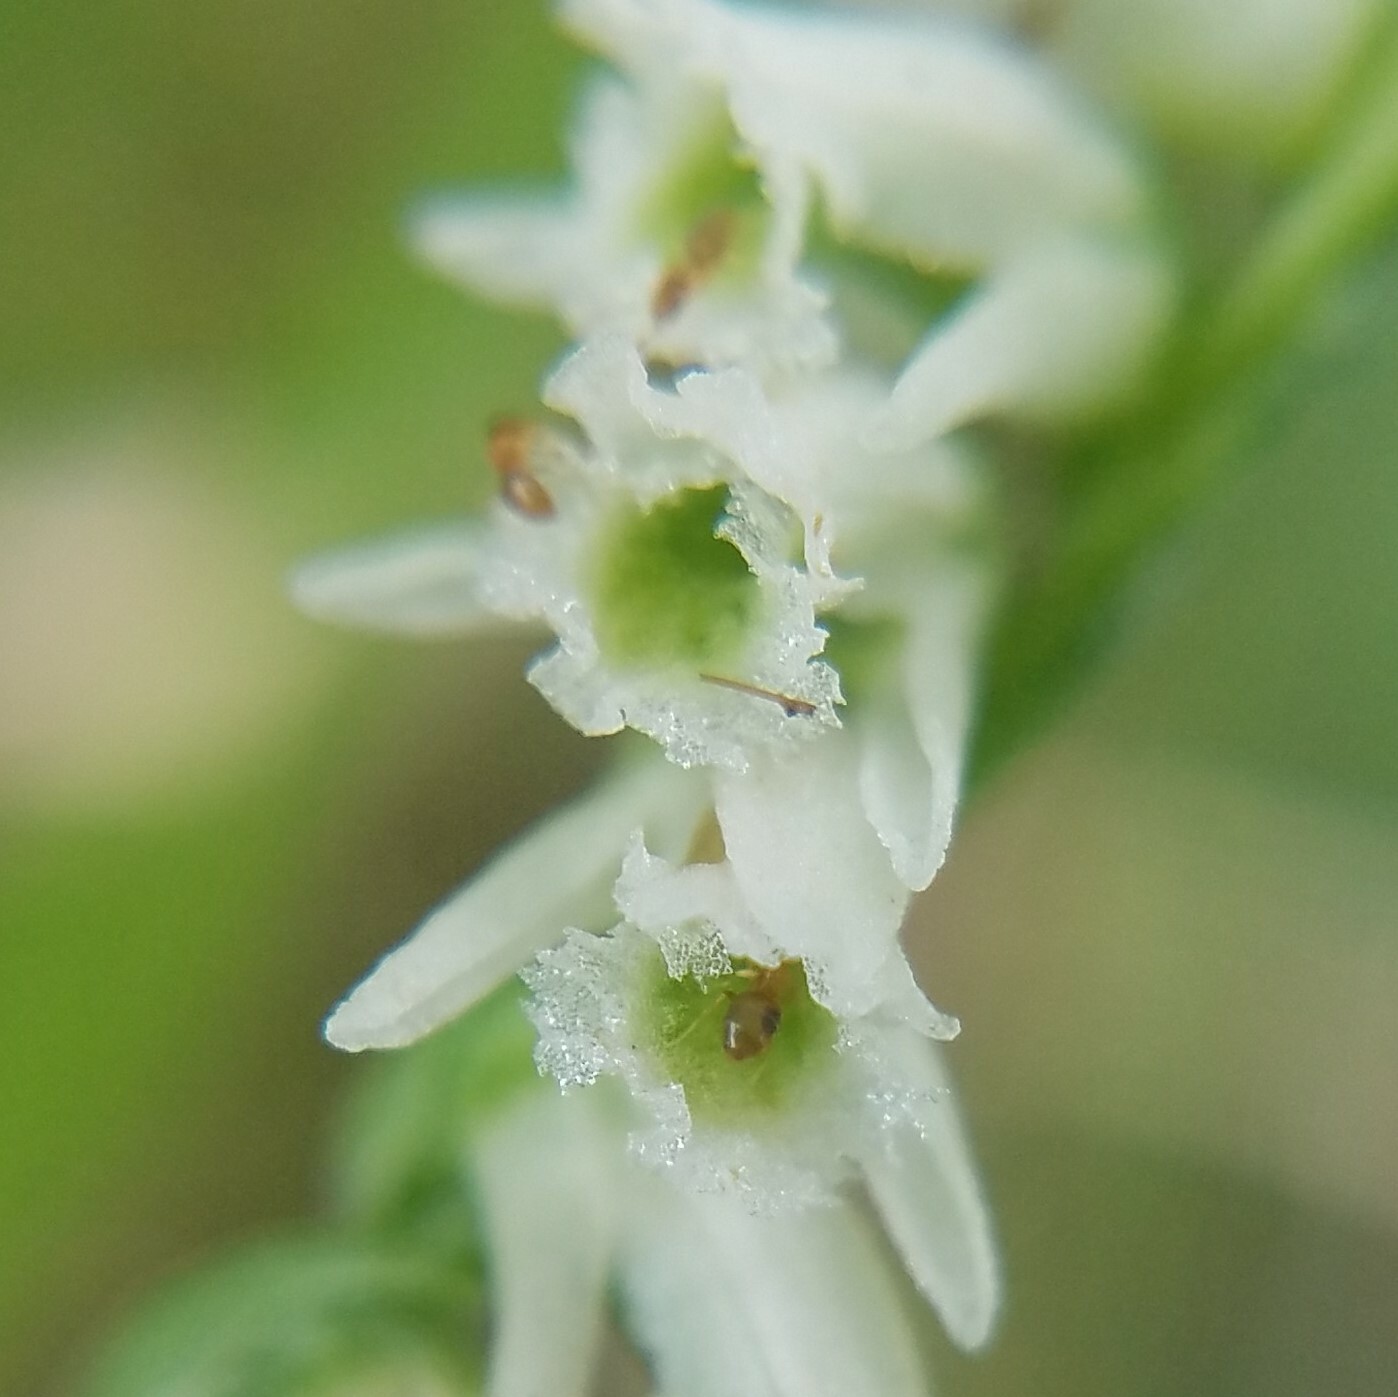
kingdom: Animalia
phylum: Arthropoda
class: Insecta
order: Hymenoptera
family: Formicidae
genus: Brachymyrmex
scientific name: Brachymyrmex depilis
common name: Hairless rover ant
